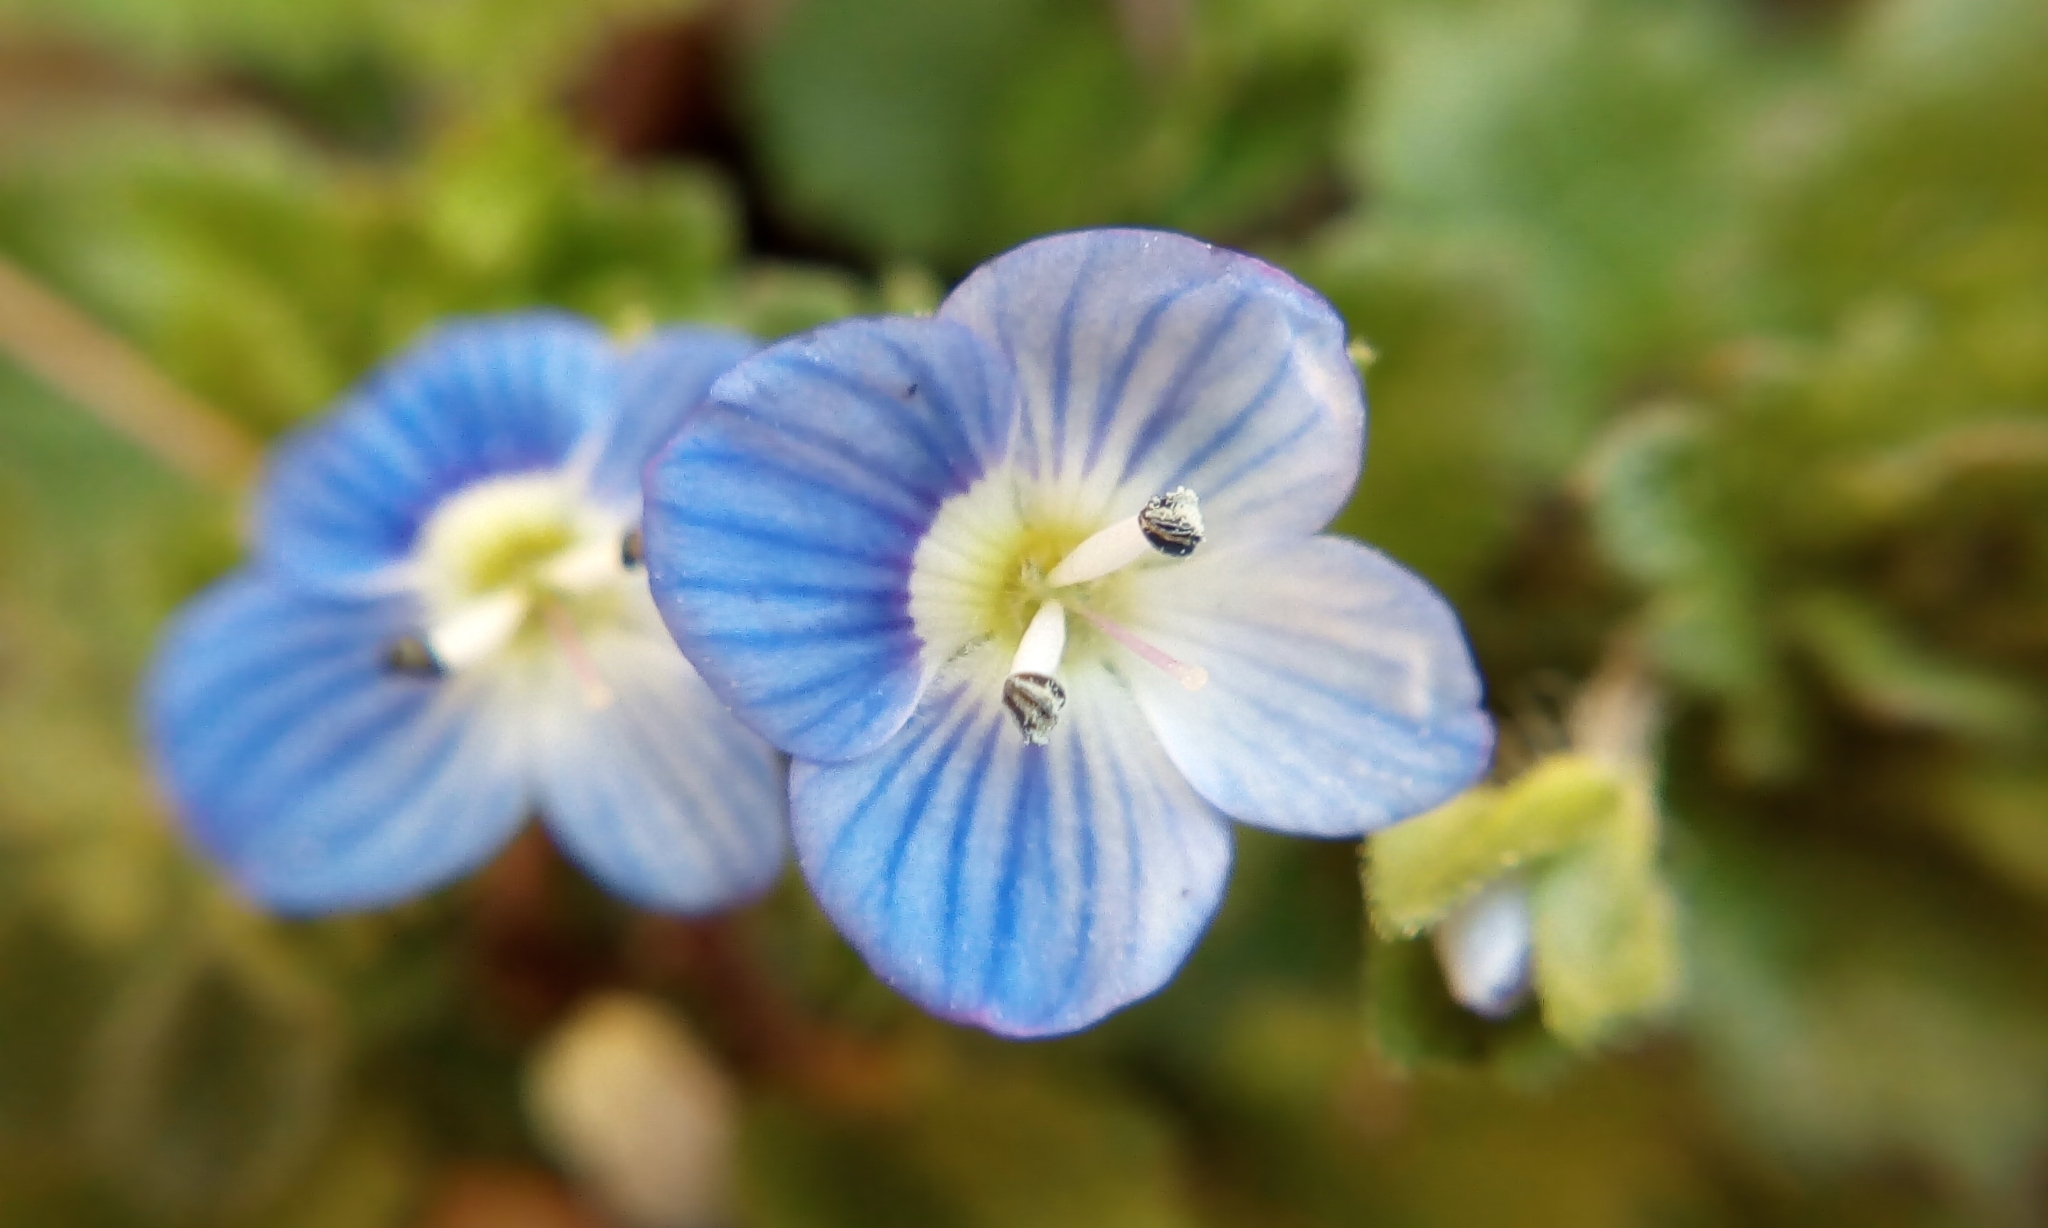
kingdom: Plantae
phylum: Tracheophyta
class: Magnoliopsida
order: Lamiales
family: Plantaginaceae
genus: Veronica
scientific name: Veronica persica
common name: Common field-speedwell
